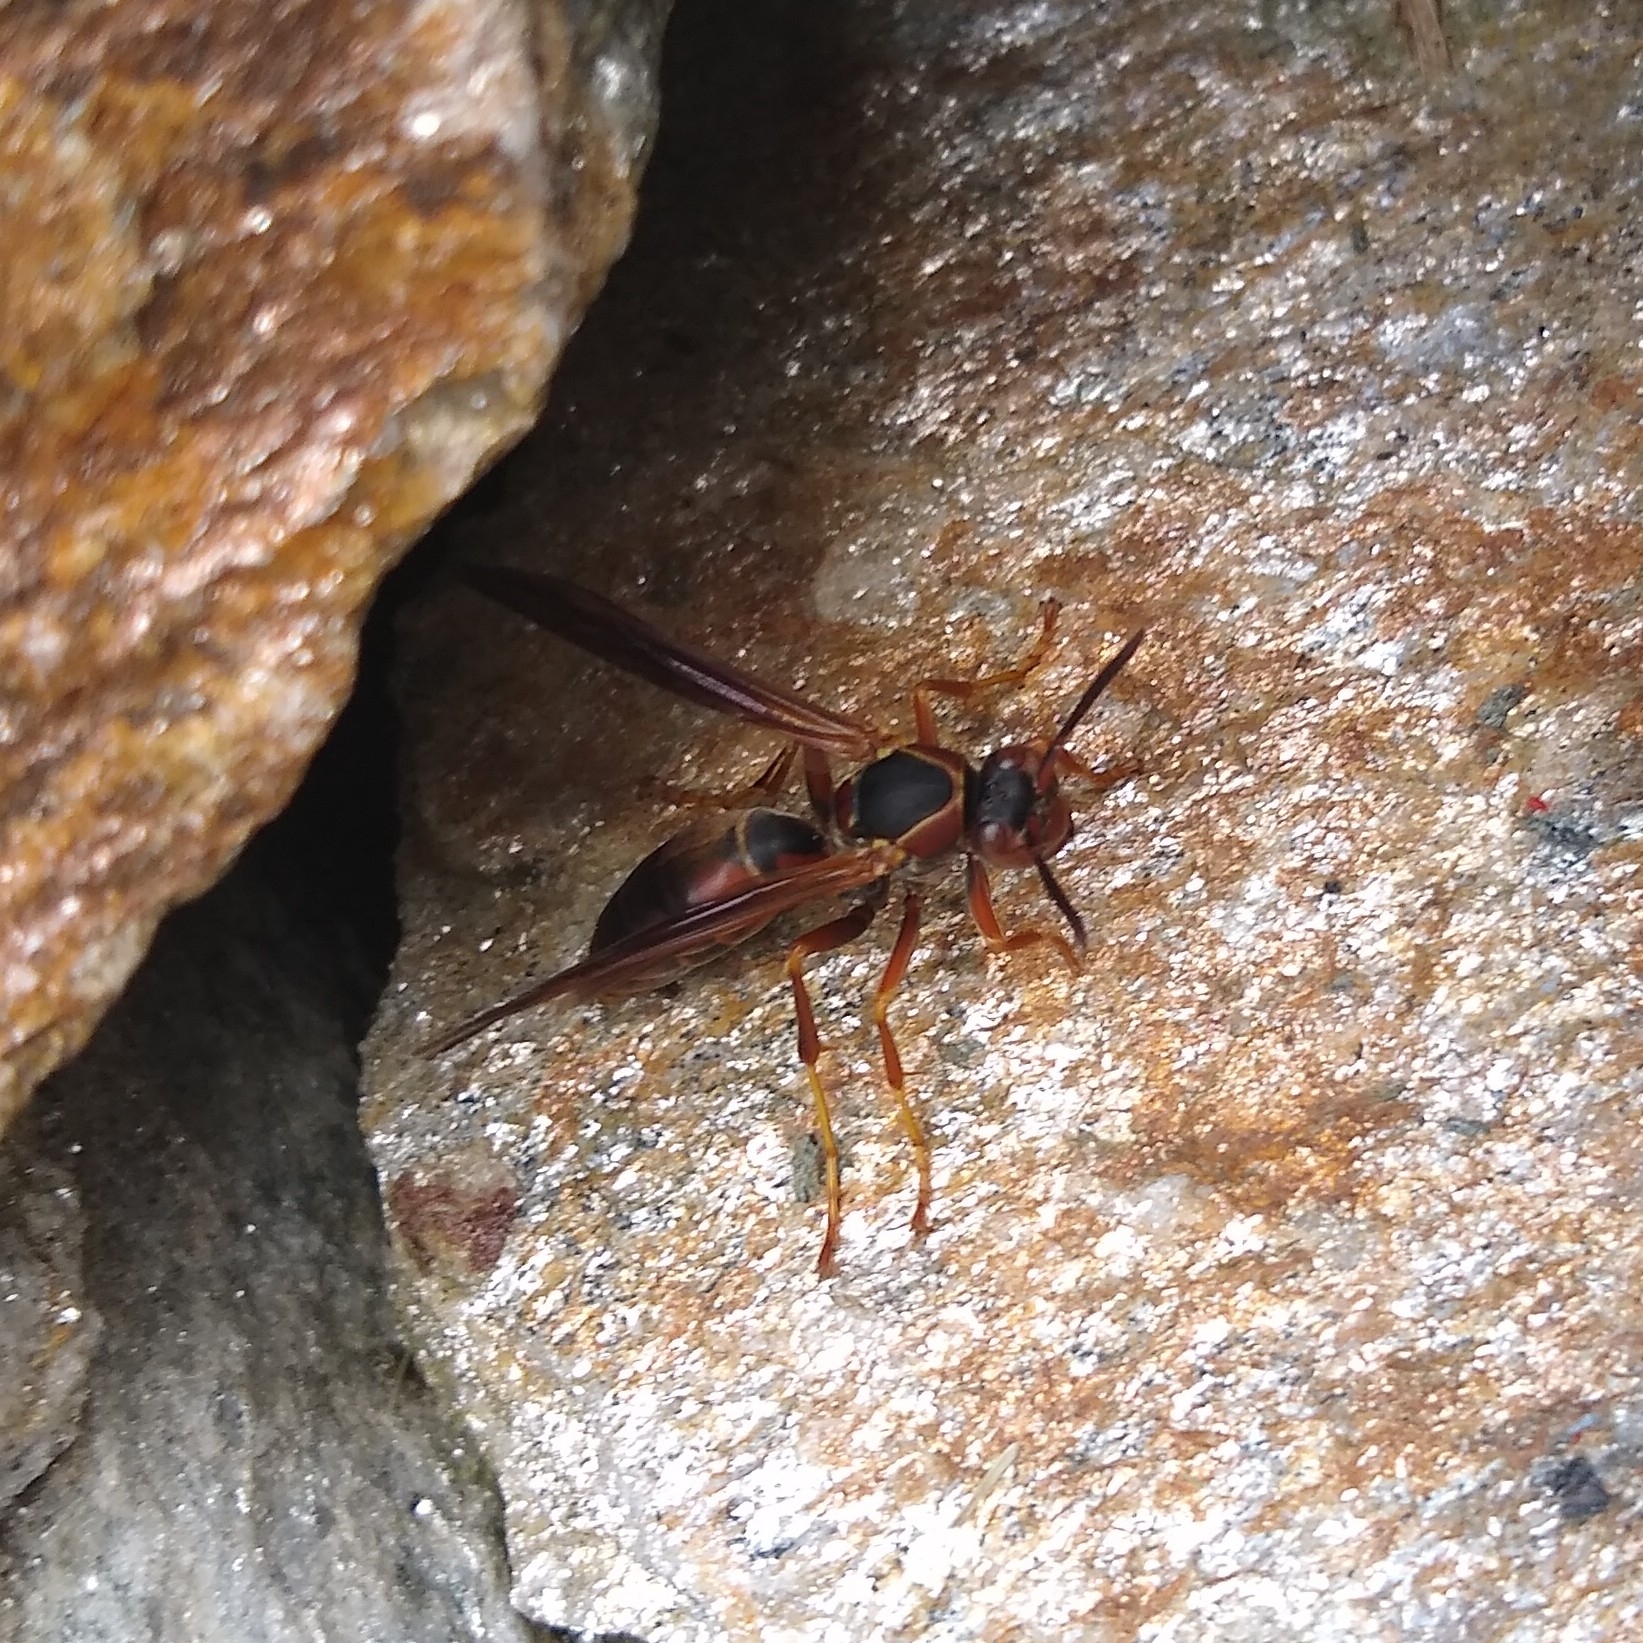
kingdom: Animalia
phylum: Arthropoda
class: Insecta
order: Hymenoptera
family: Eumenidae
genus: Polistes
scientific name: Polistes fuscatus
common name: Dark paper wasp
